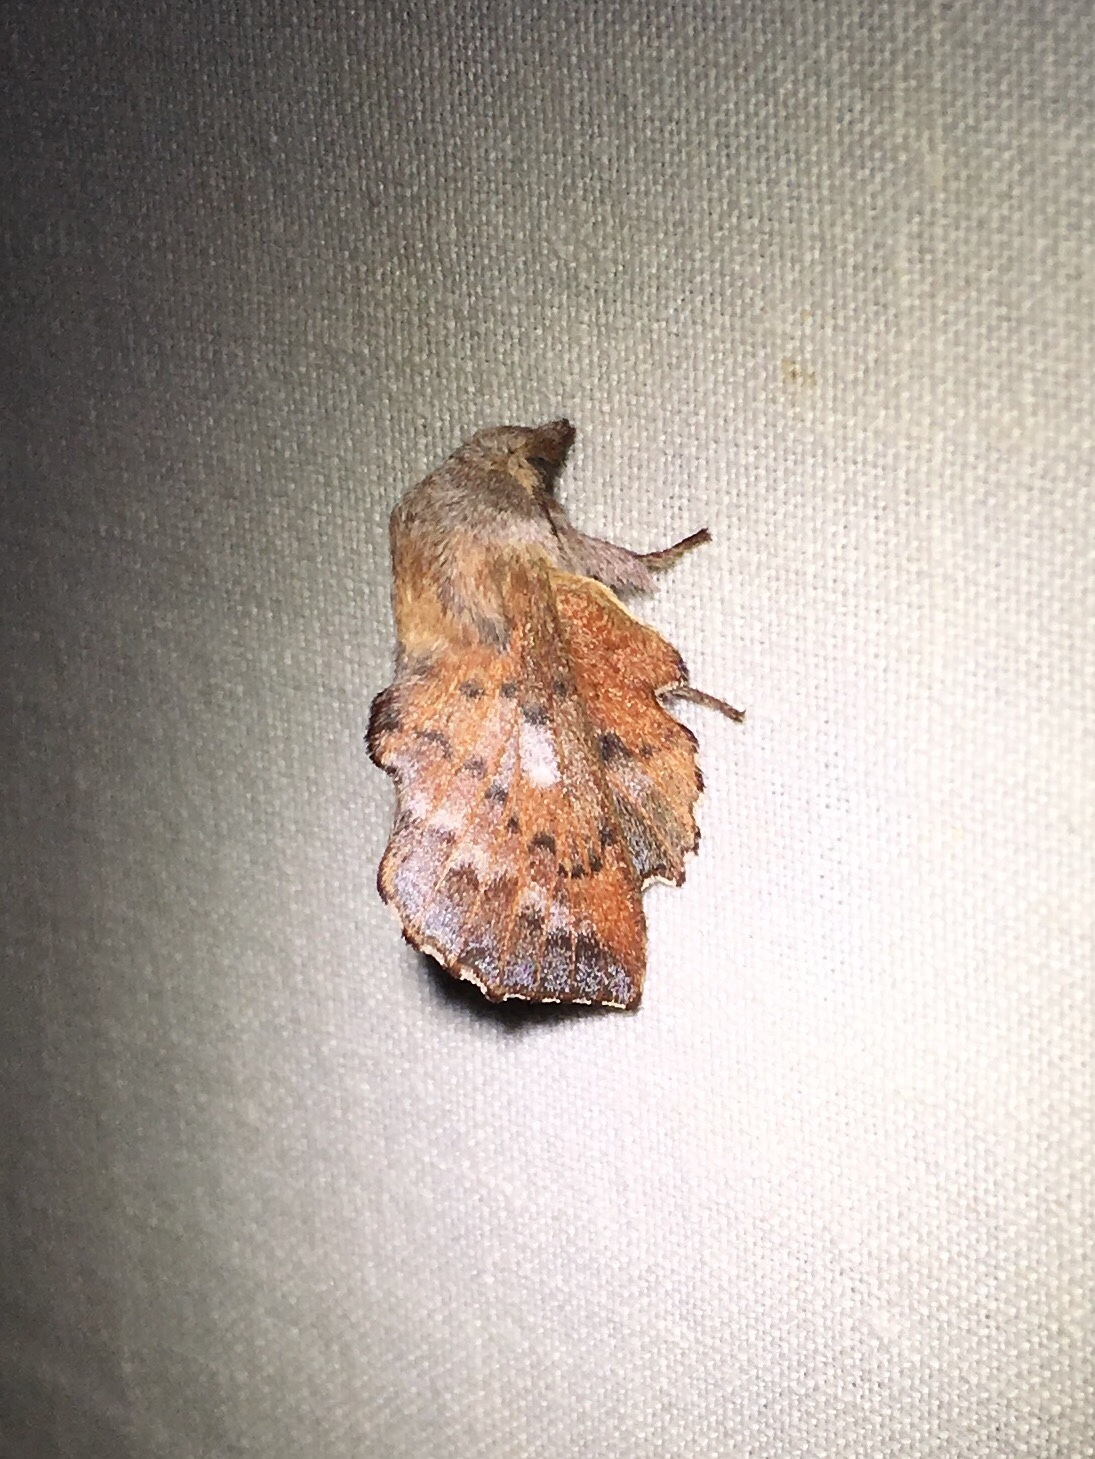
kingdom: Animalia
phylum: Arthropoda
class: Insecta
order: Lepidoptera
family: Lasiocampidae
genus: Phyllodesma
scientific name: Phyllodesma americana
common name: American lappet moth
